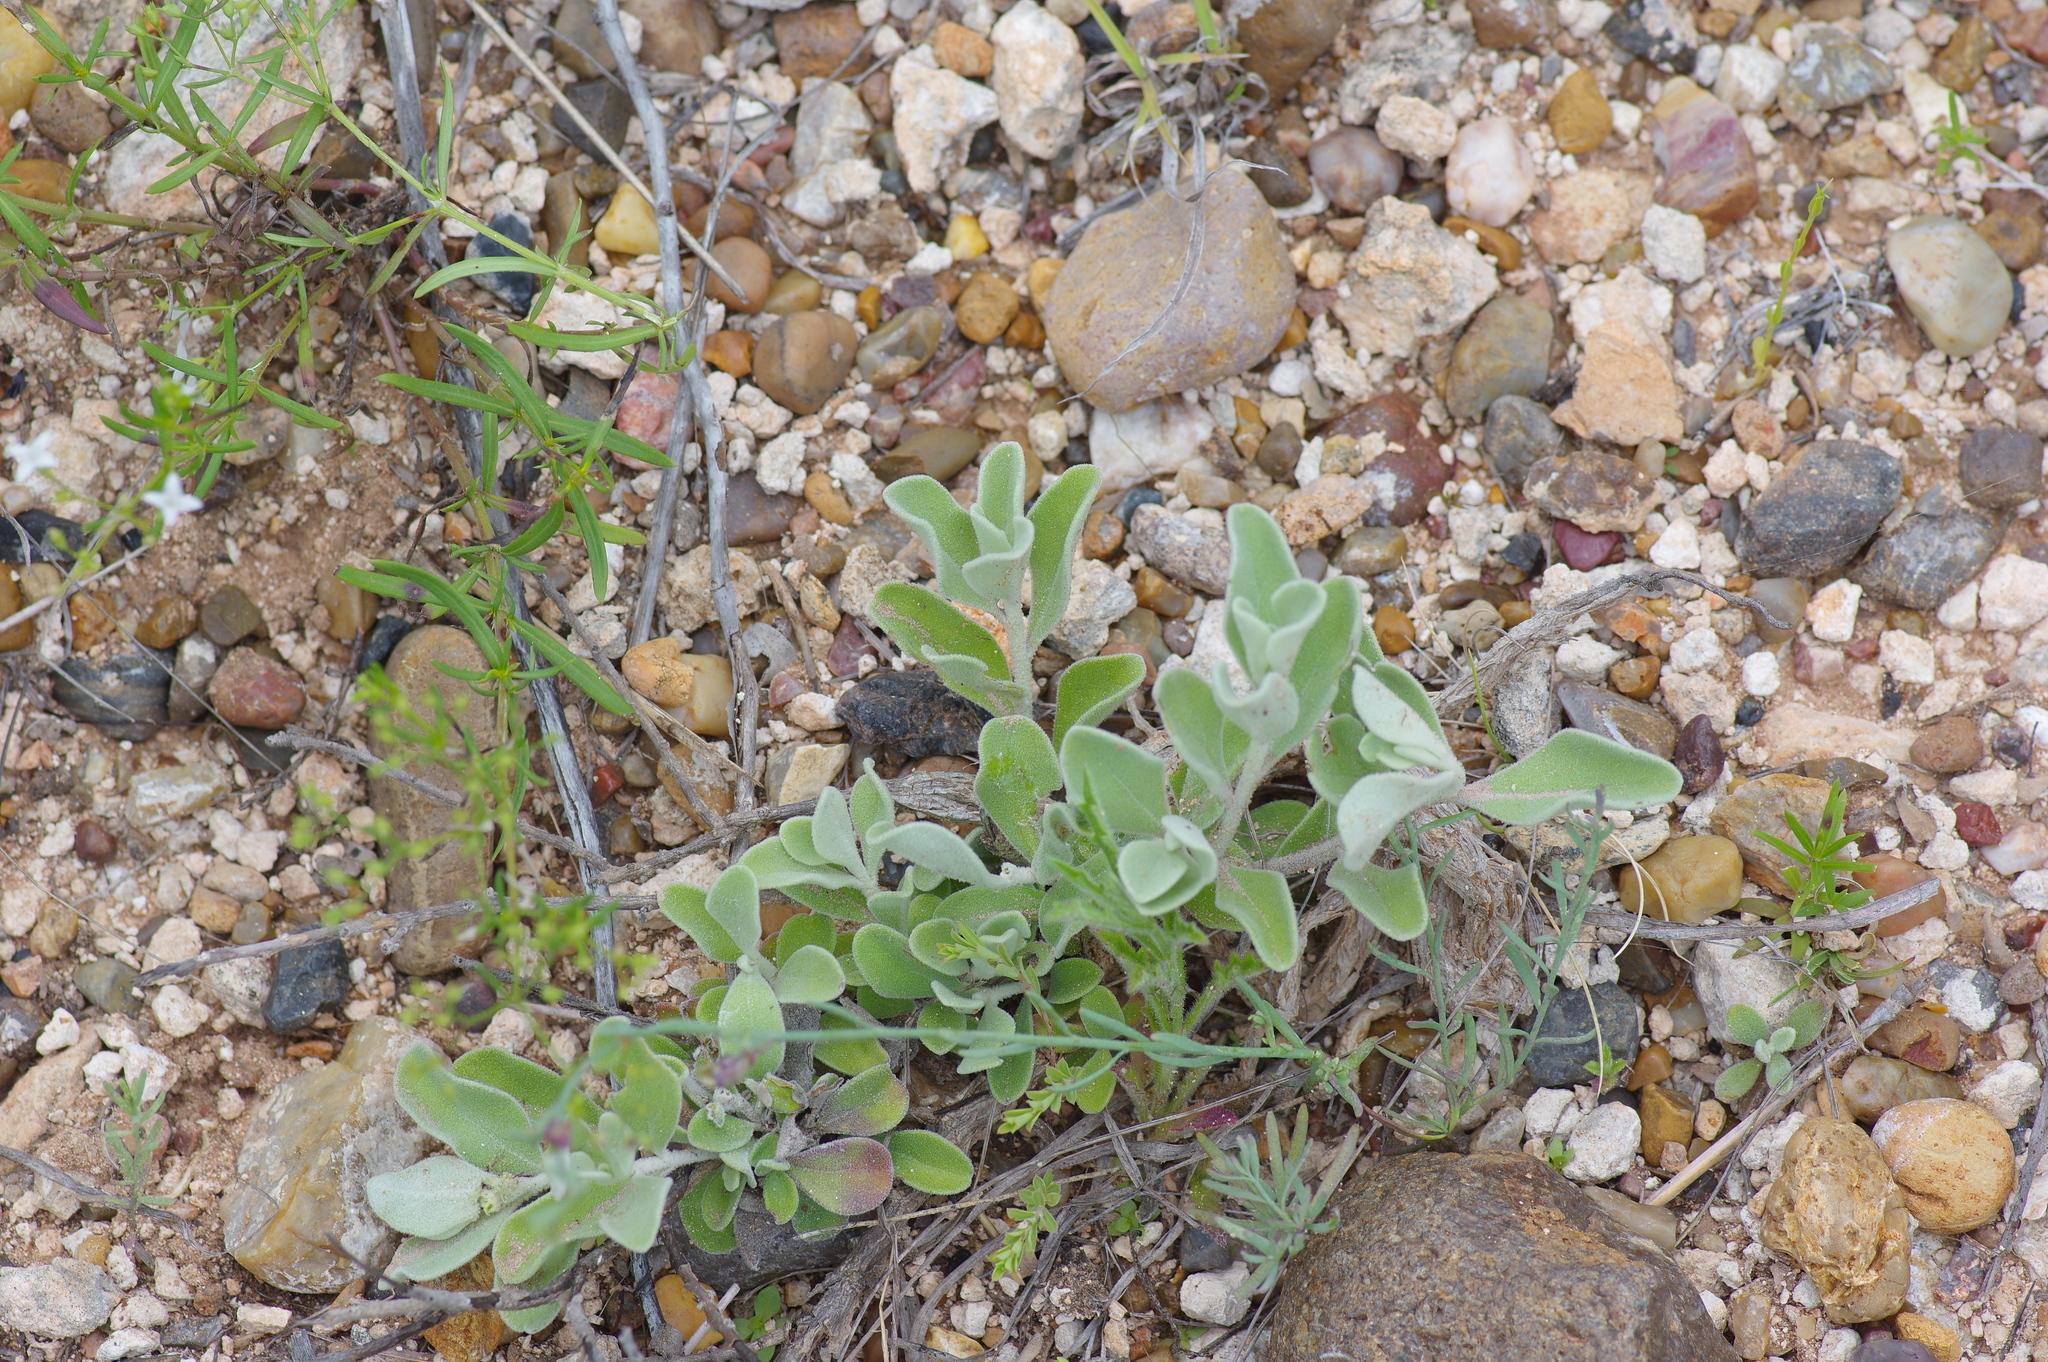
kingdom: Plantae
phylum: Tracheophyta
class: Magnoliopsida
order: Lamiales
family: Scrophulariaceae
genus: Leucophyllum
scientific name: Leucophyllum frutescens
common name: Texas silverleaf
